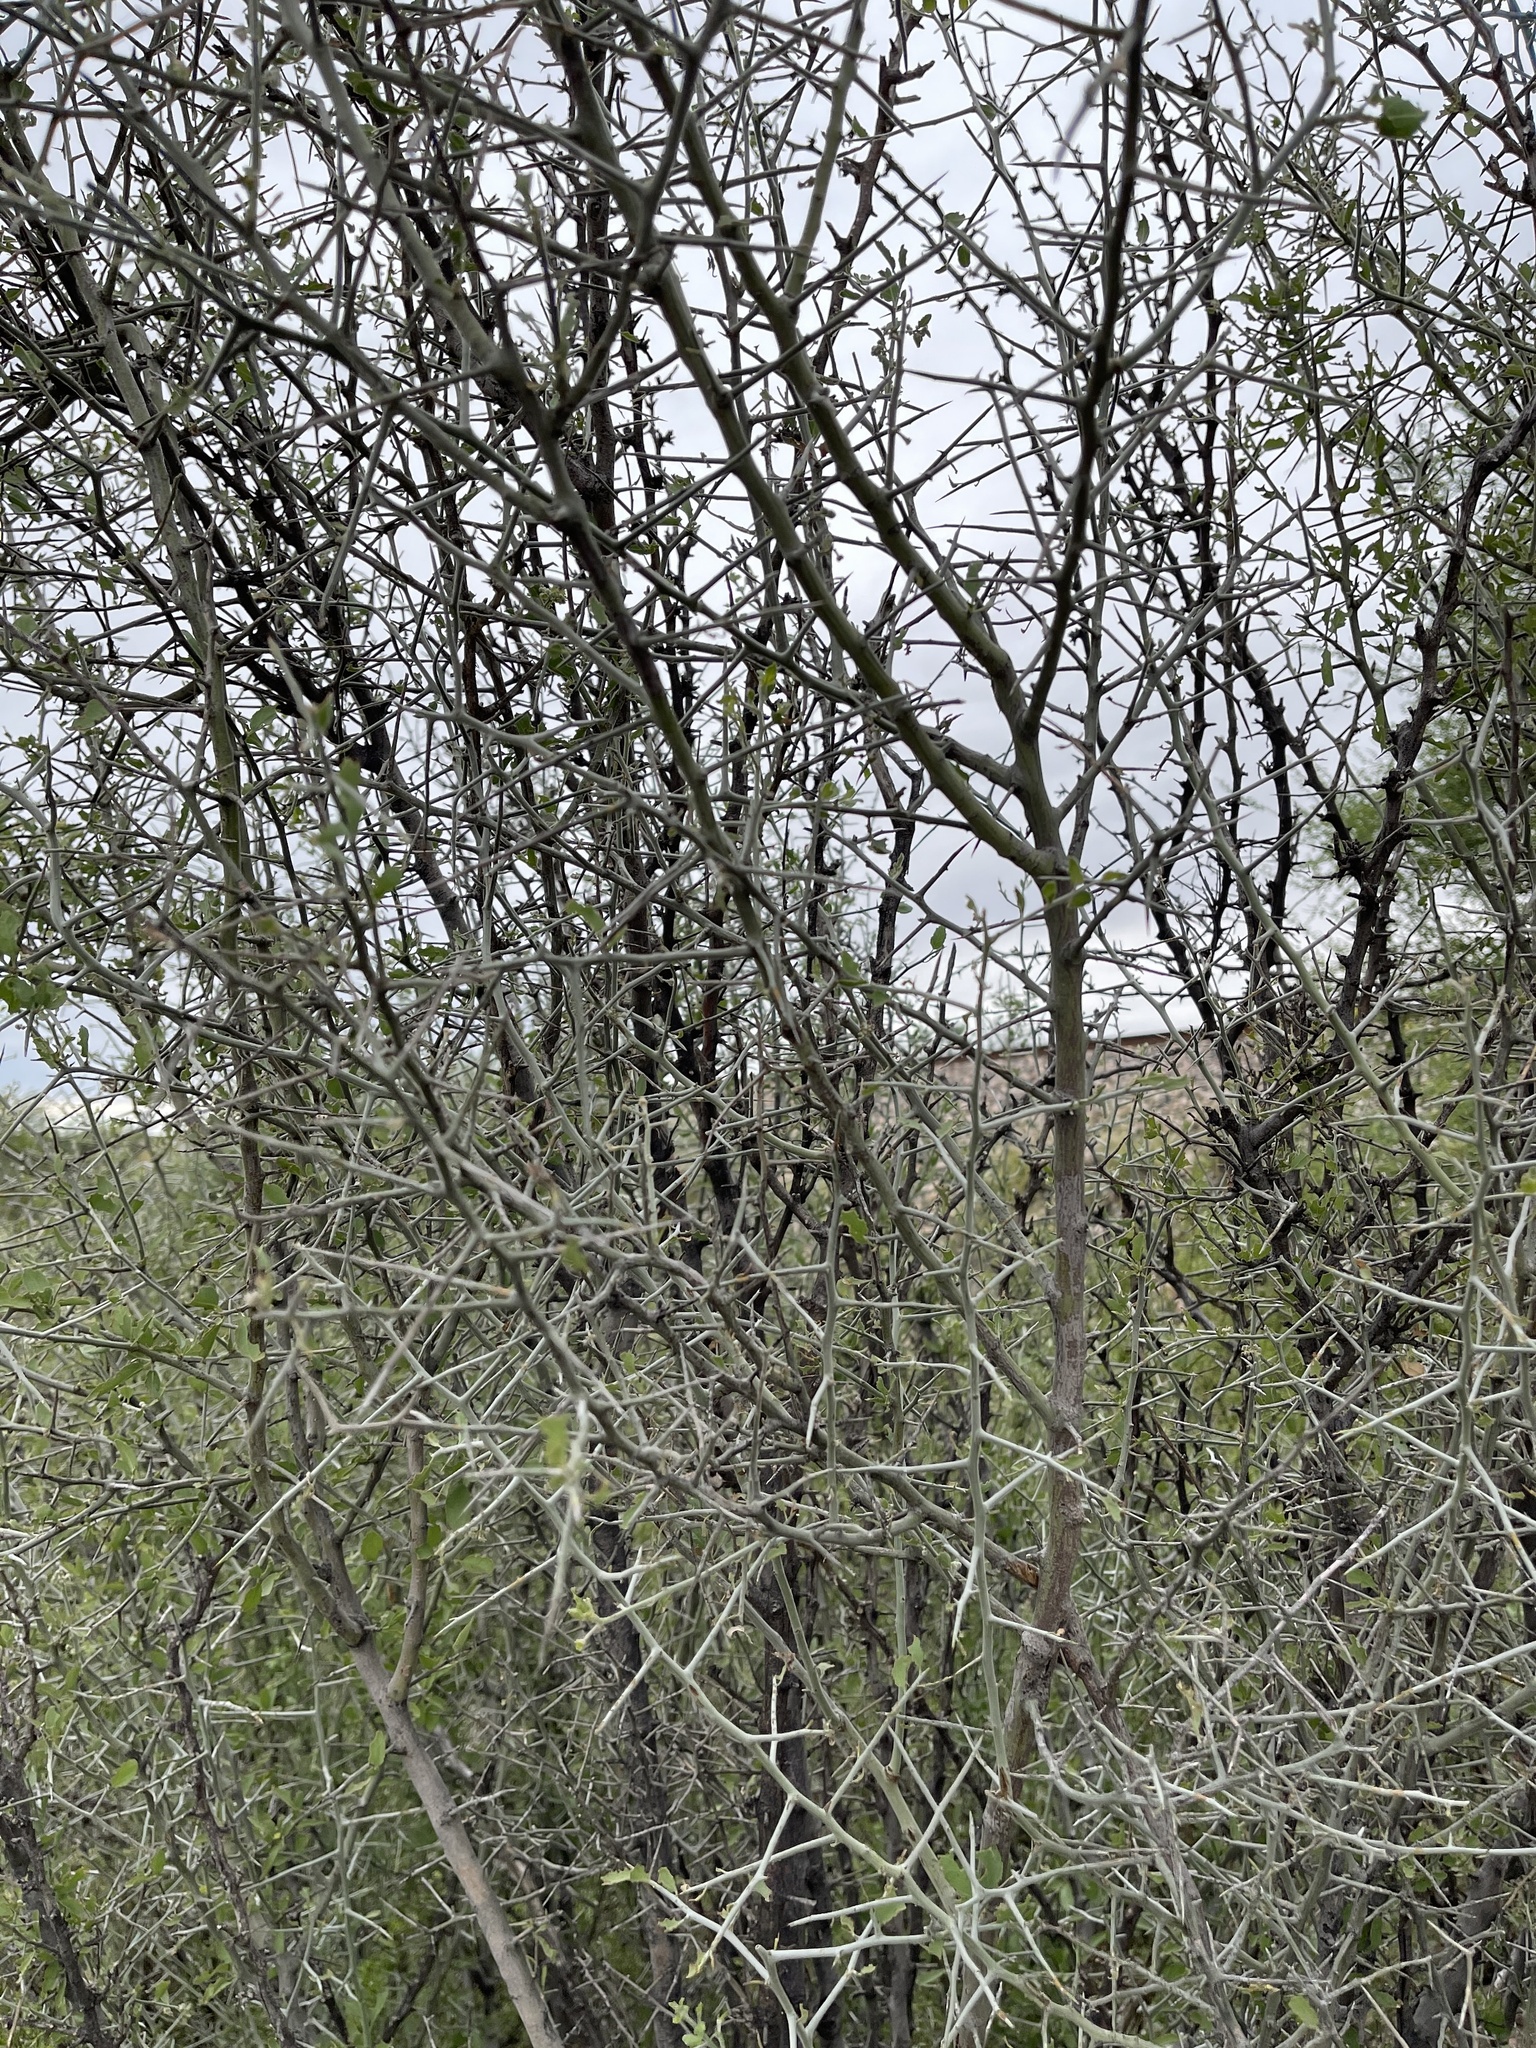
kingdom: Plantae
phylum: Tracheophyta
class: Magnoliopsida
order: Rosales
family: Rhamnaceae
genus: Sarcomphalus
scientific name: Sarcomphalus obtusifolius
